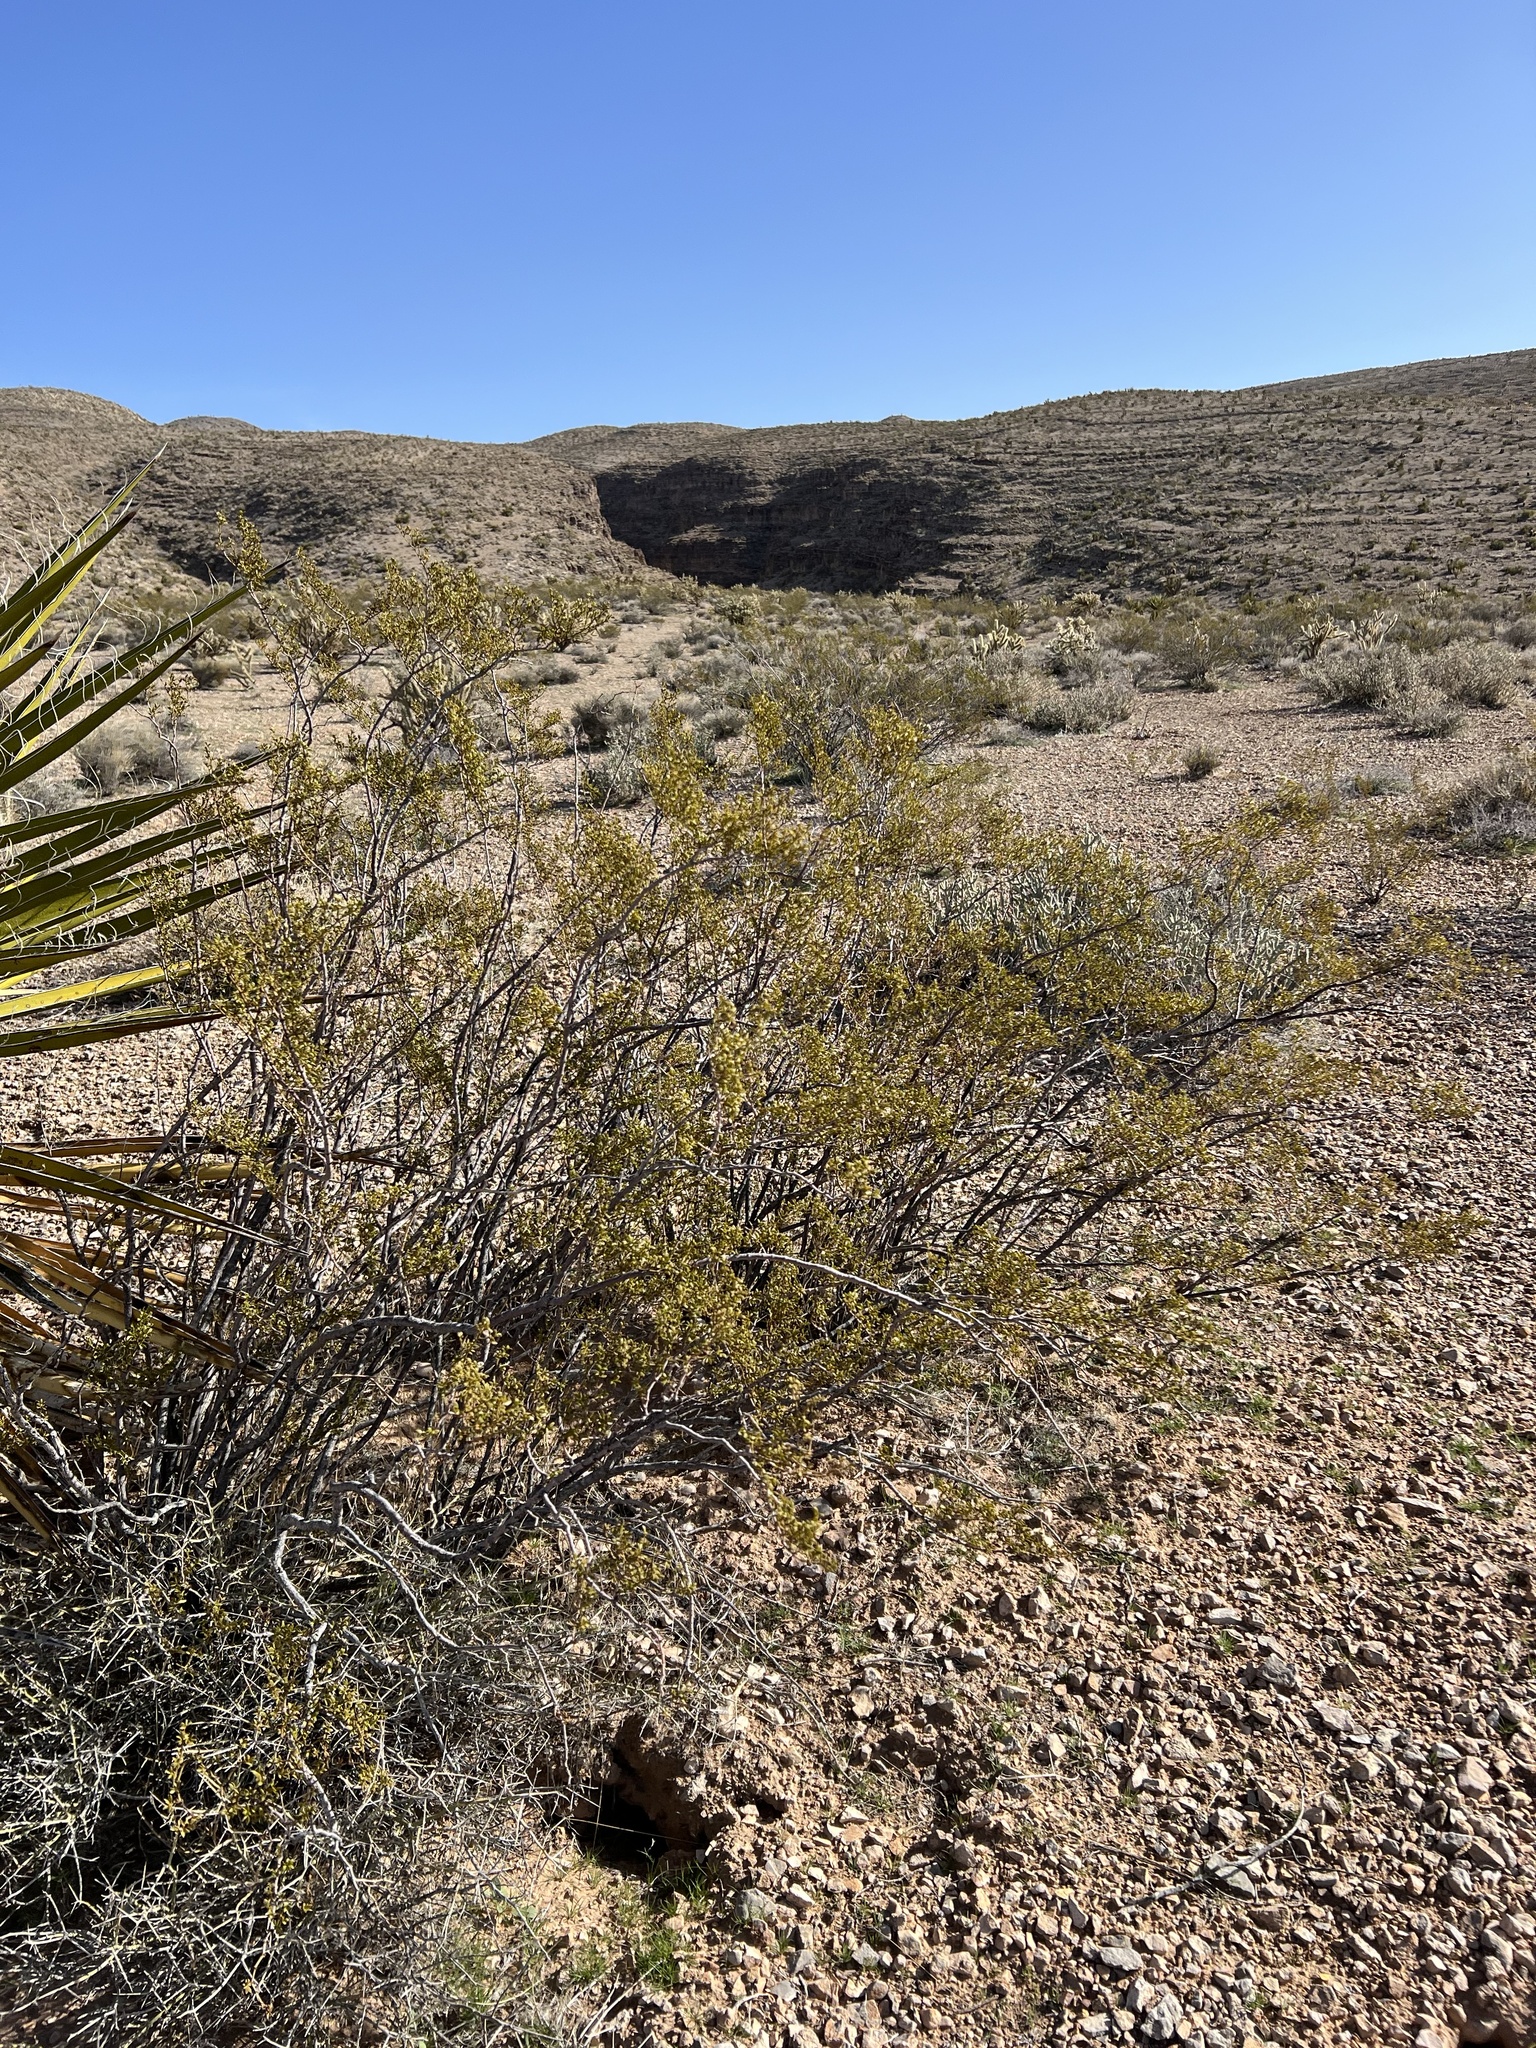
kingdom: Plantae
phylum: Tracheophyta
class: Magnoliopsida
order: Zygophyllales
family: Zygophyllaceae
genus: Larrea
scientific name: Larrea tridentata
